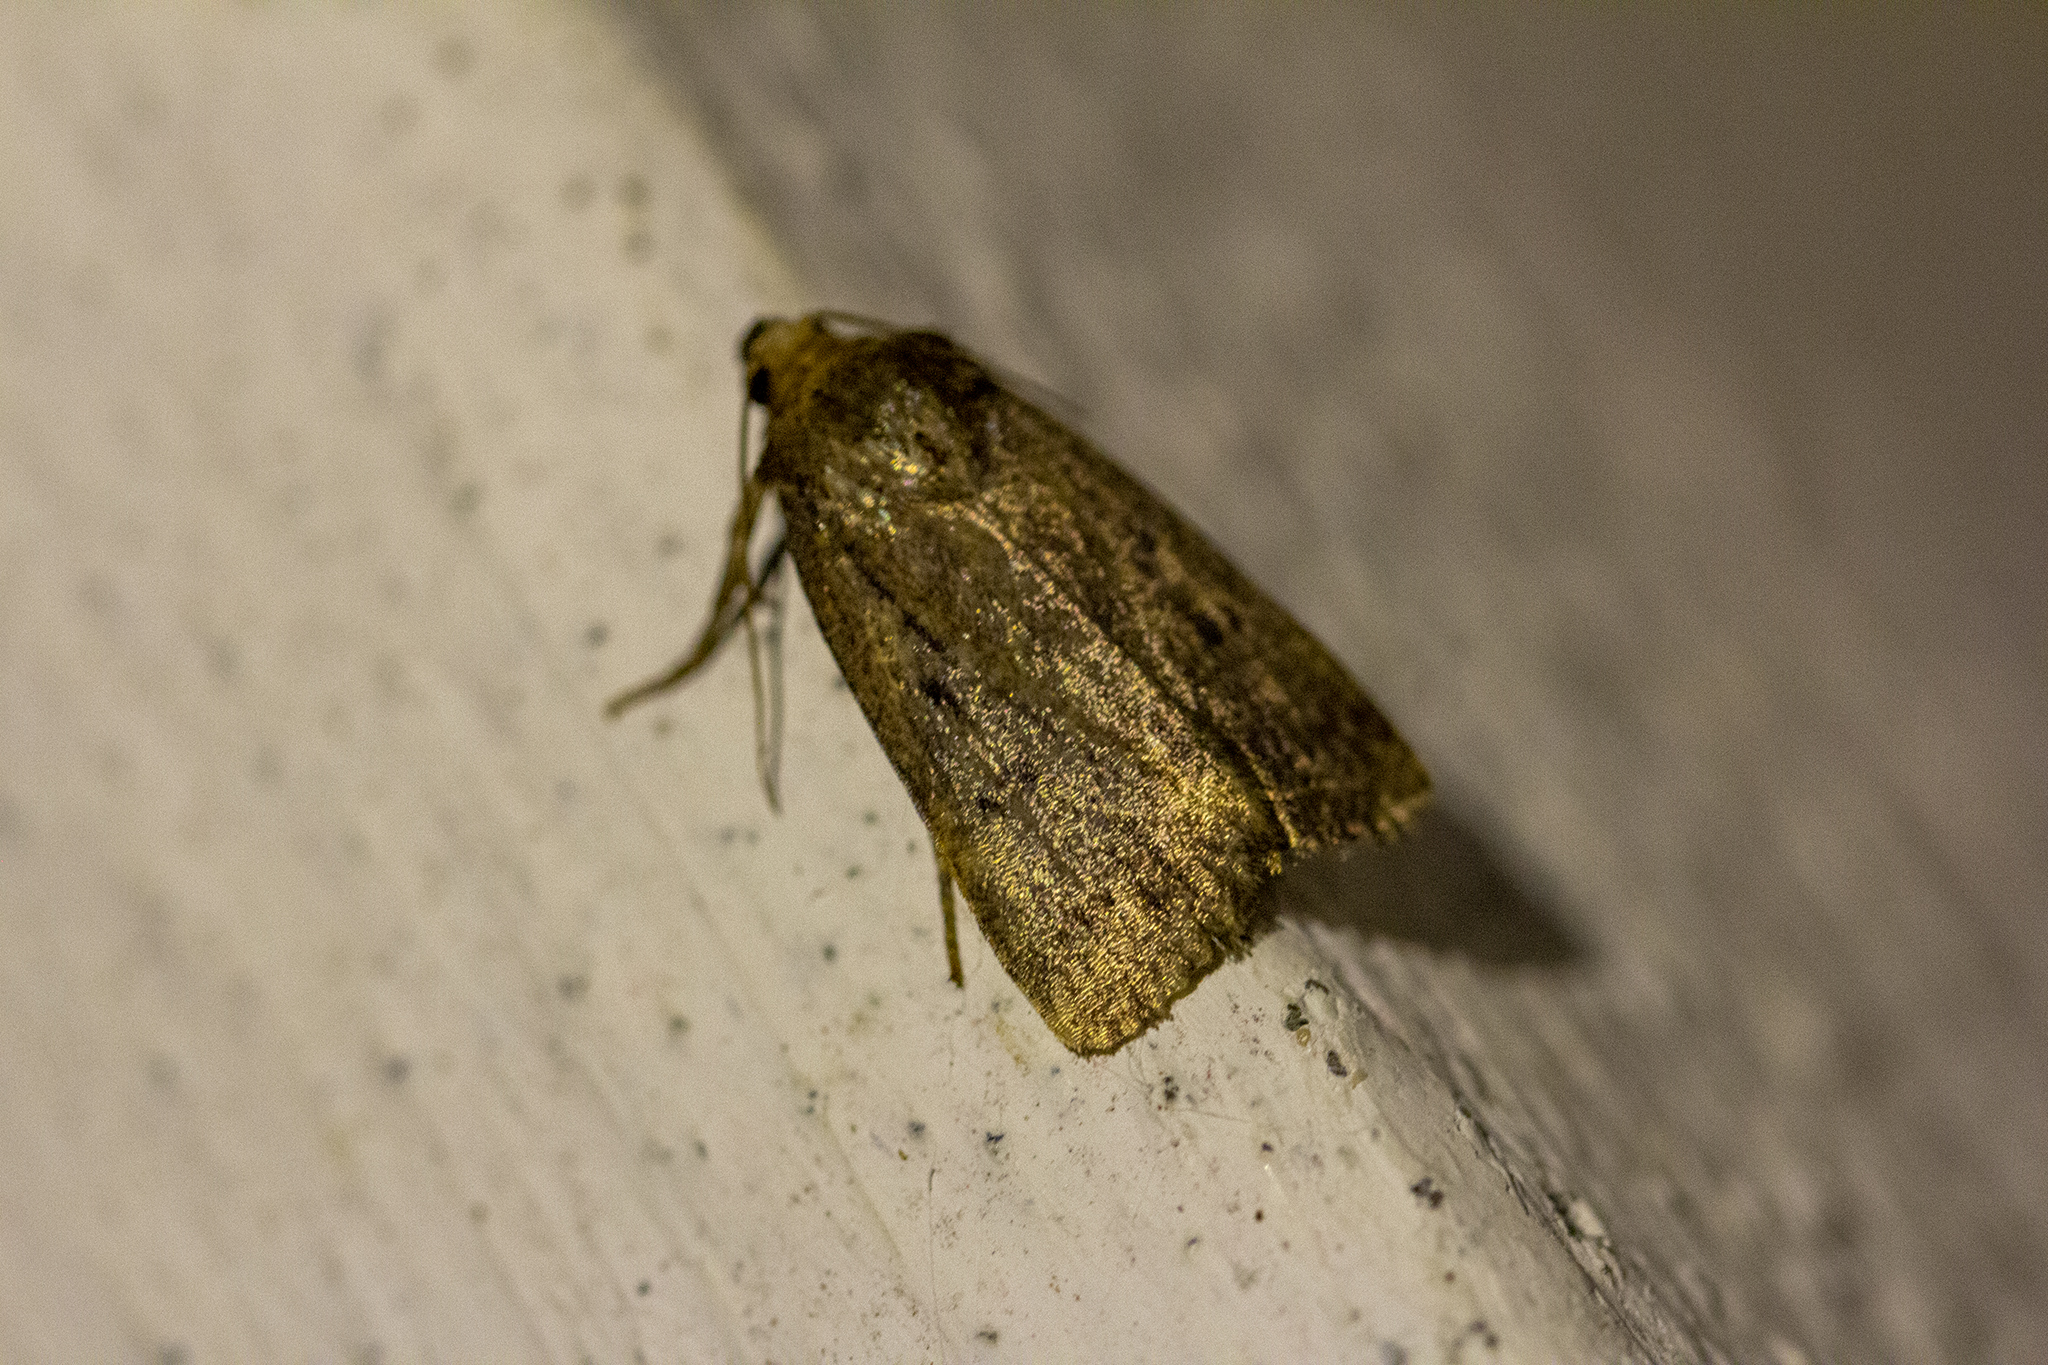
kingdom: Animalia
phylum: Arthropoda
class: Insecta
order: Lepidoptera
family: Noctuidae
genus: Amphipyra
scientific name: Amphipyra tragopoginis
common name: Mouse moth
